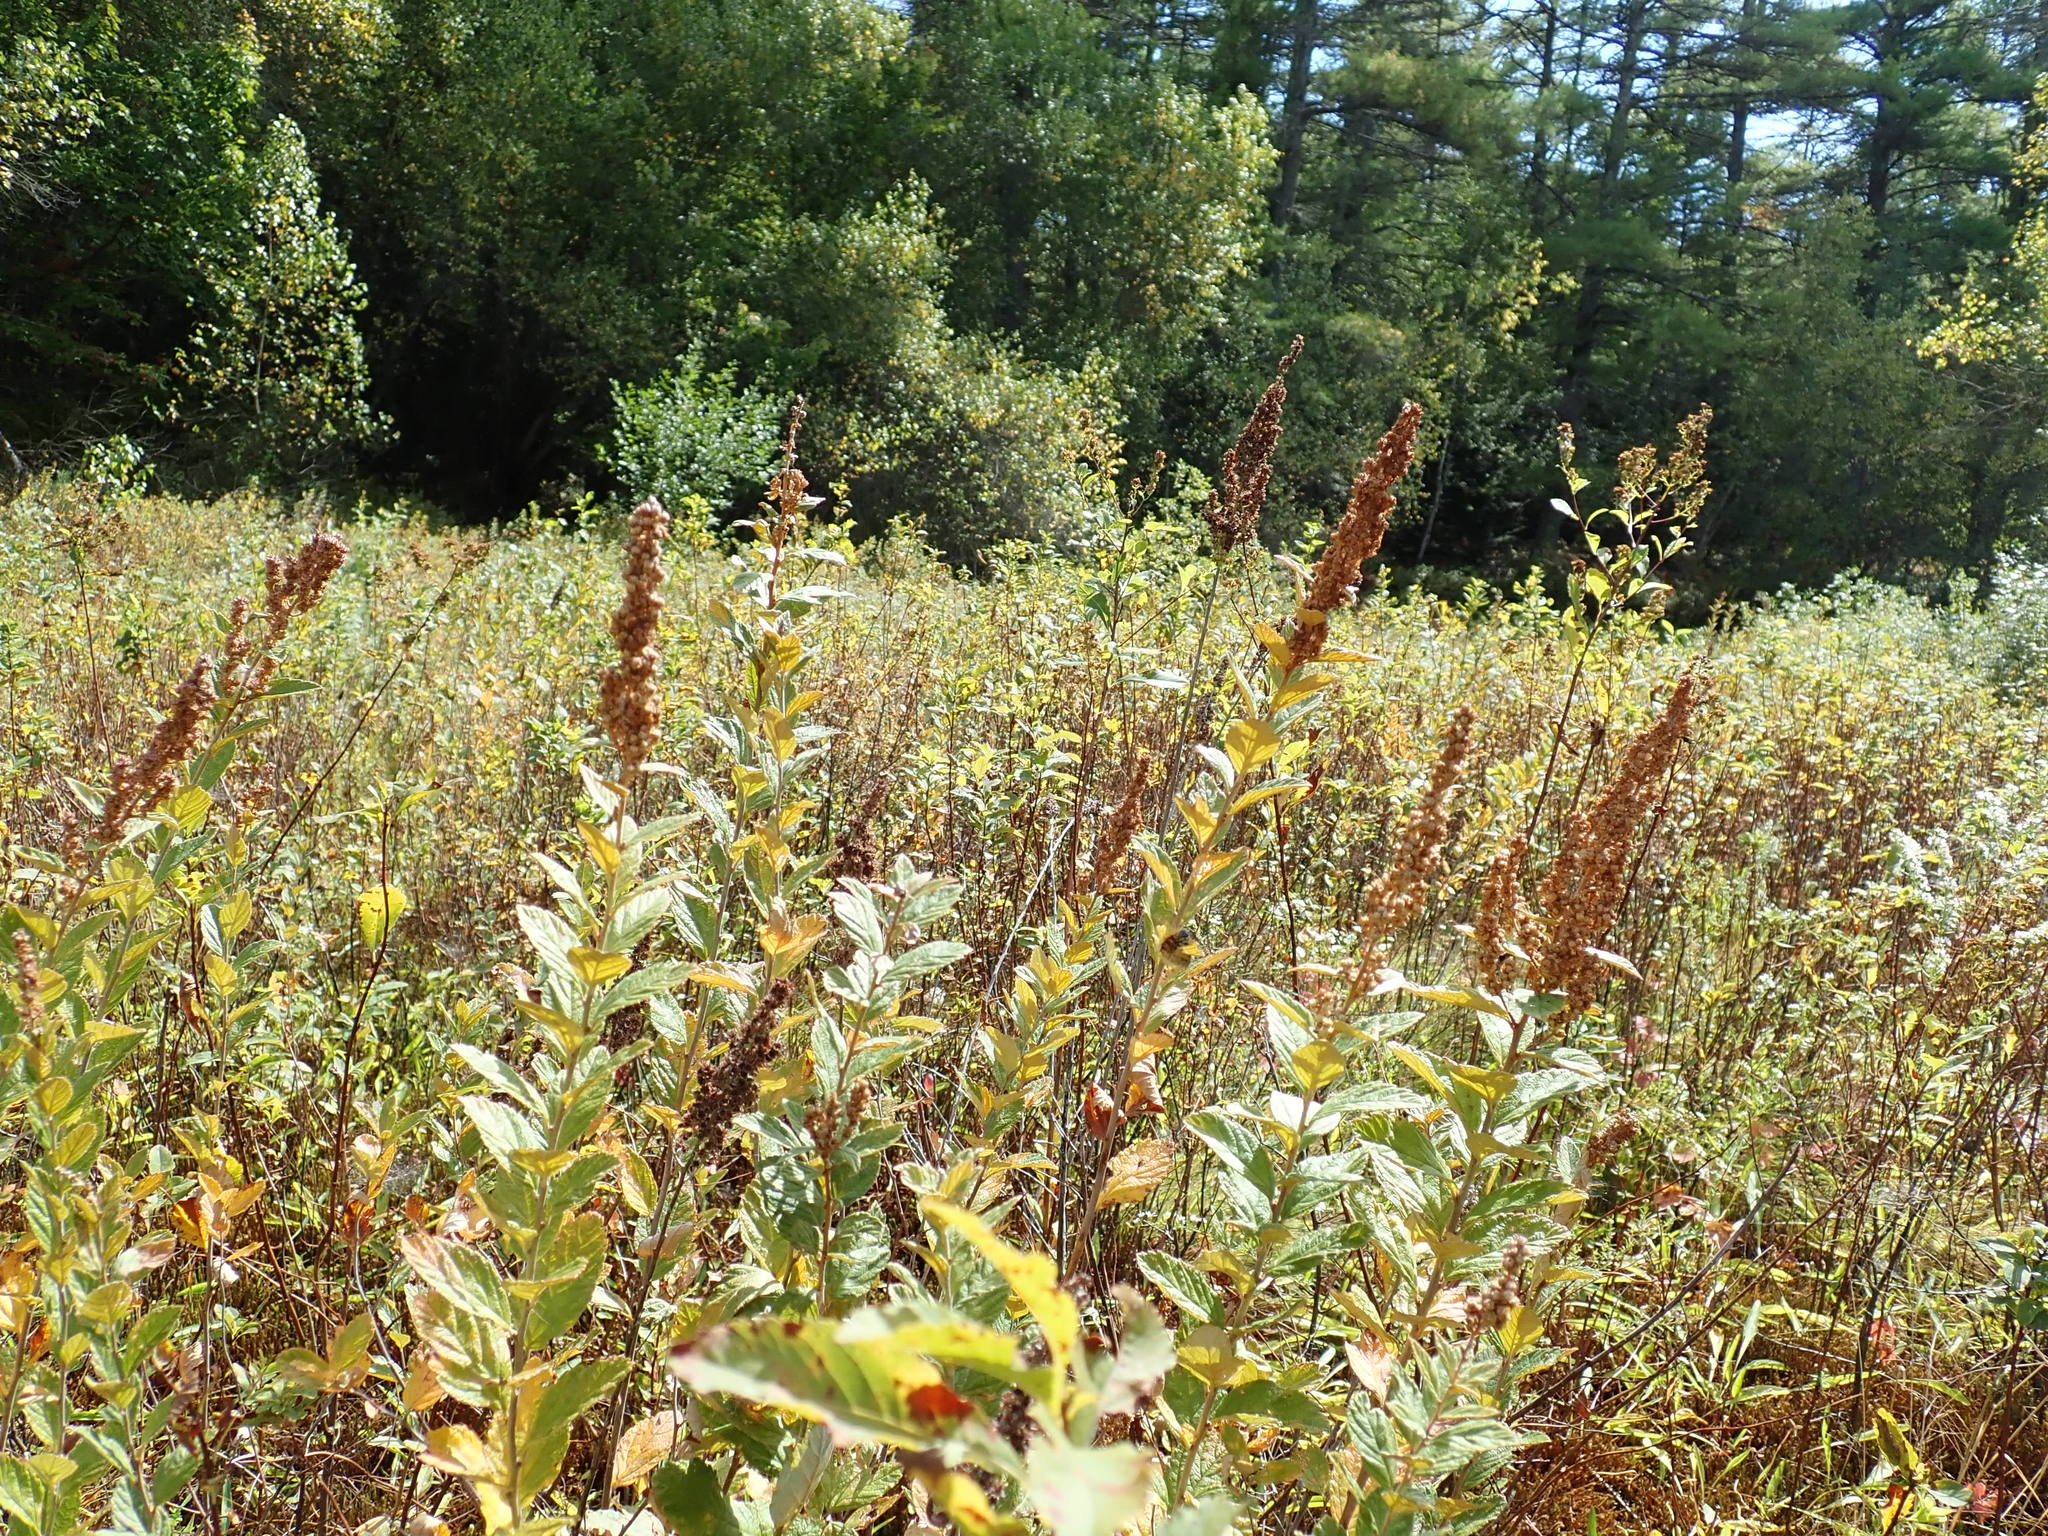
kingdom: Plantae
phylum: Tracheophyta
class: Magnoliopsida
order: Rosales
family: Rosaceae
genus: Spiraea
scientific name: Spiraea tomentosa
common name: Hardhack
